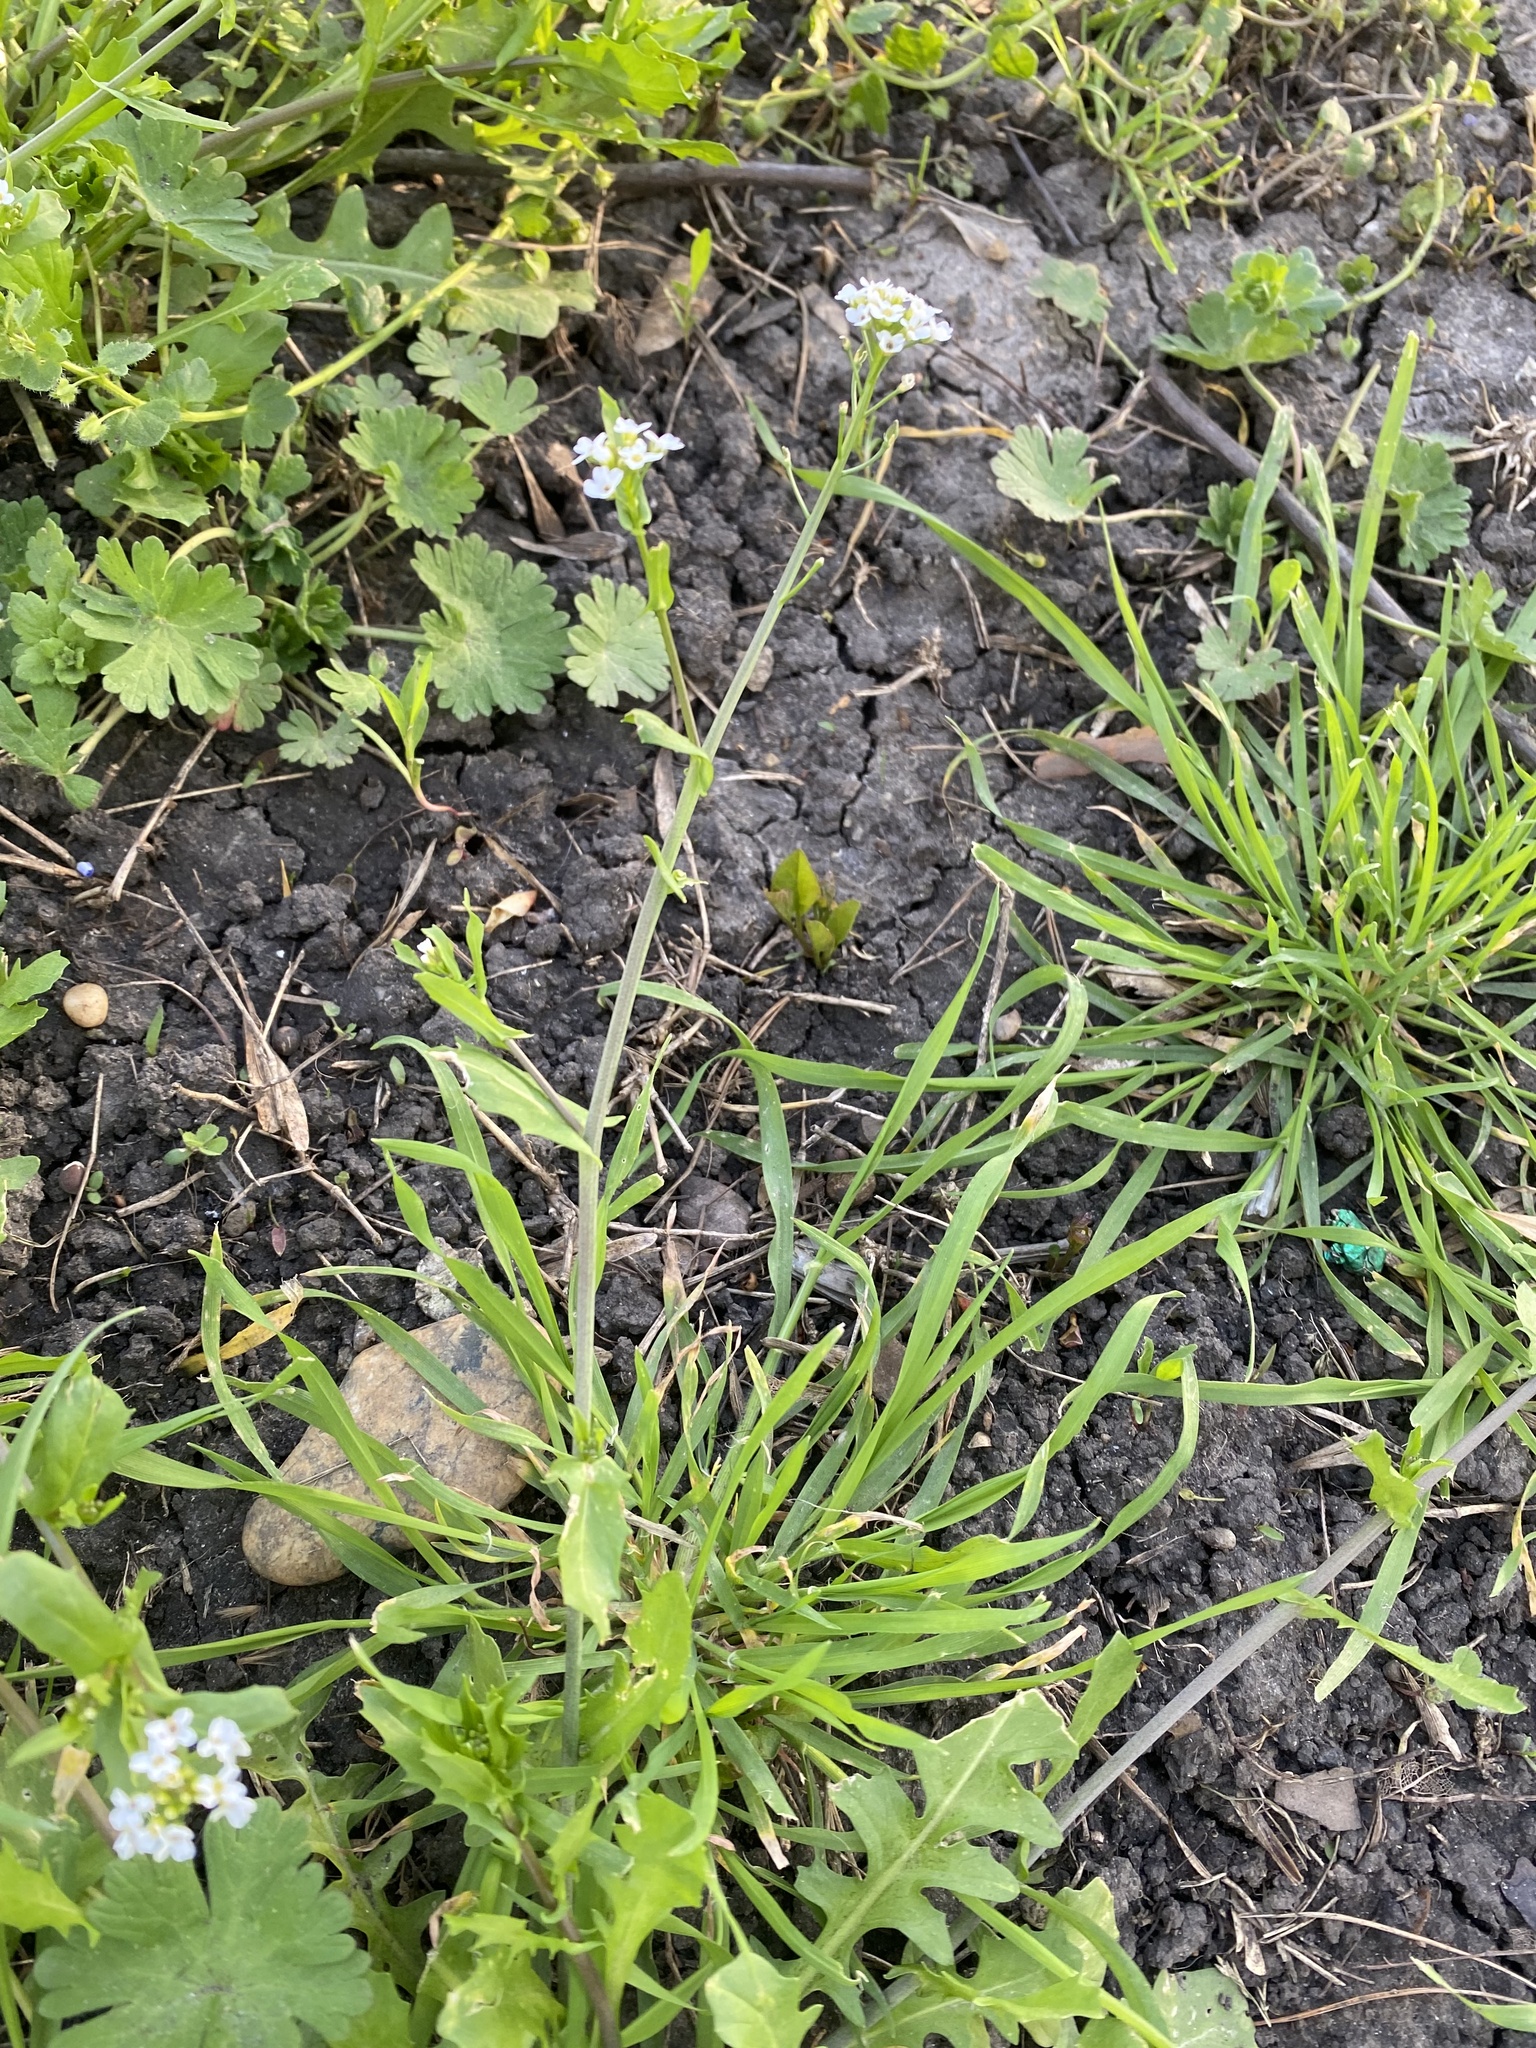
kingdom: Plantae
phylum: Tracheophyta
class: Magnoliopsida
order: Brassicales
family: Brassicaceae
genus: Calepina
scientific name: Calepina irregularis
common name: White ballmustard
